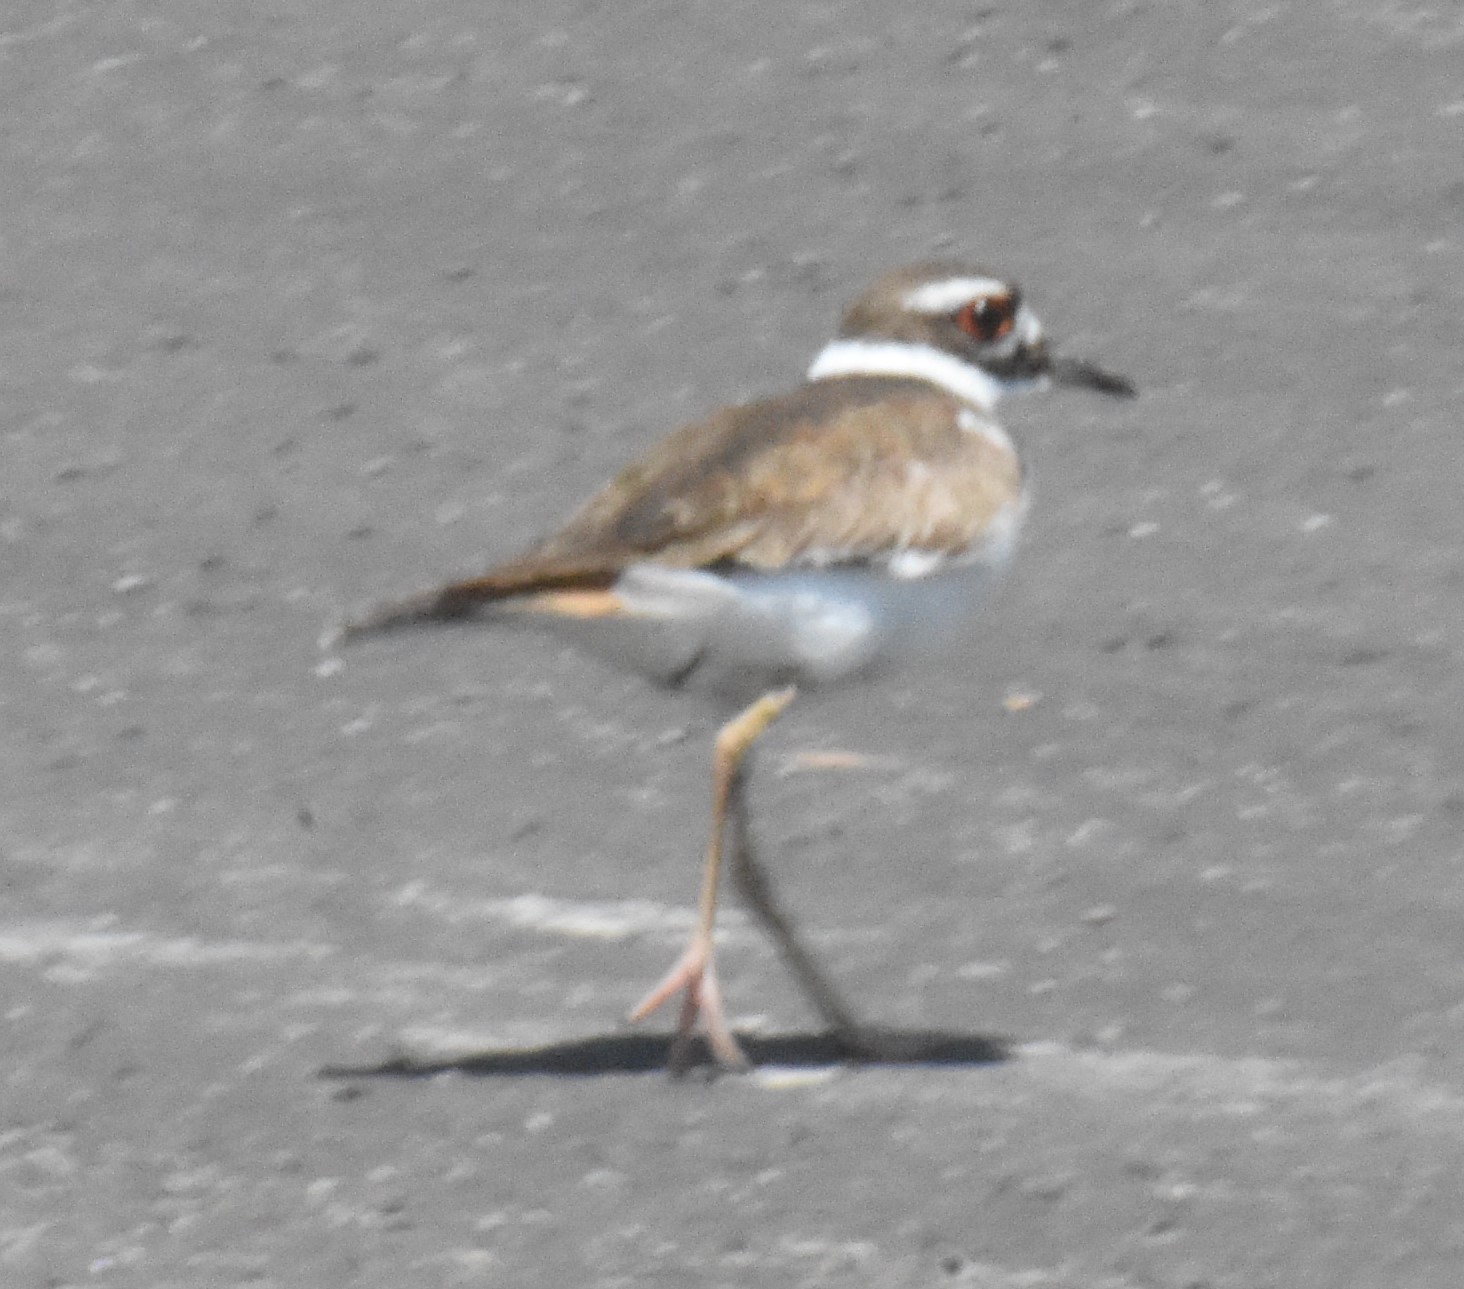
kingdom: Animalia
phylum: Chordata
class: Aves
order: Charadriiformes
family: Charadriidae
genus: Charadrius
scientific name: Charadrius vociferus
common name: Killdeer
